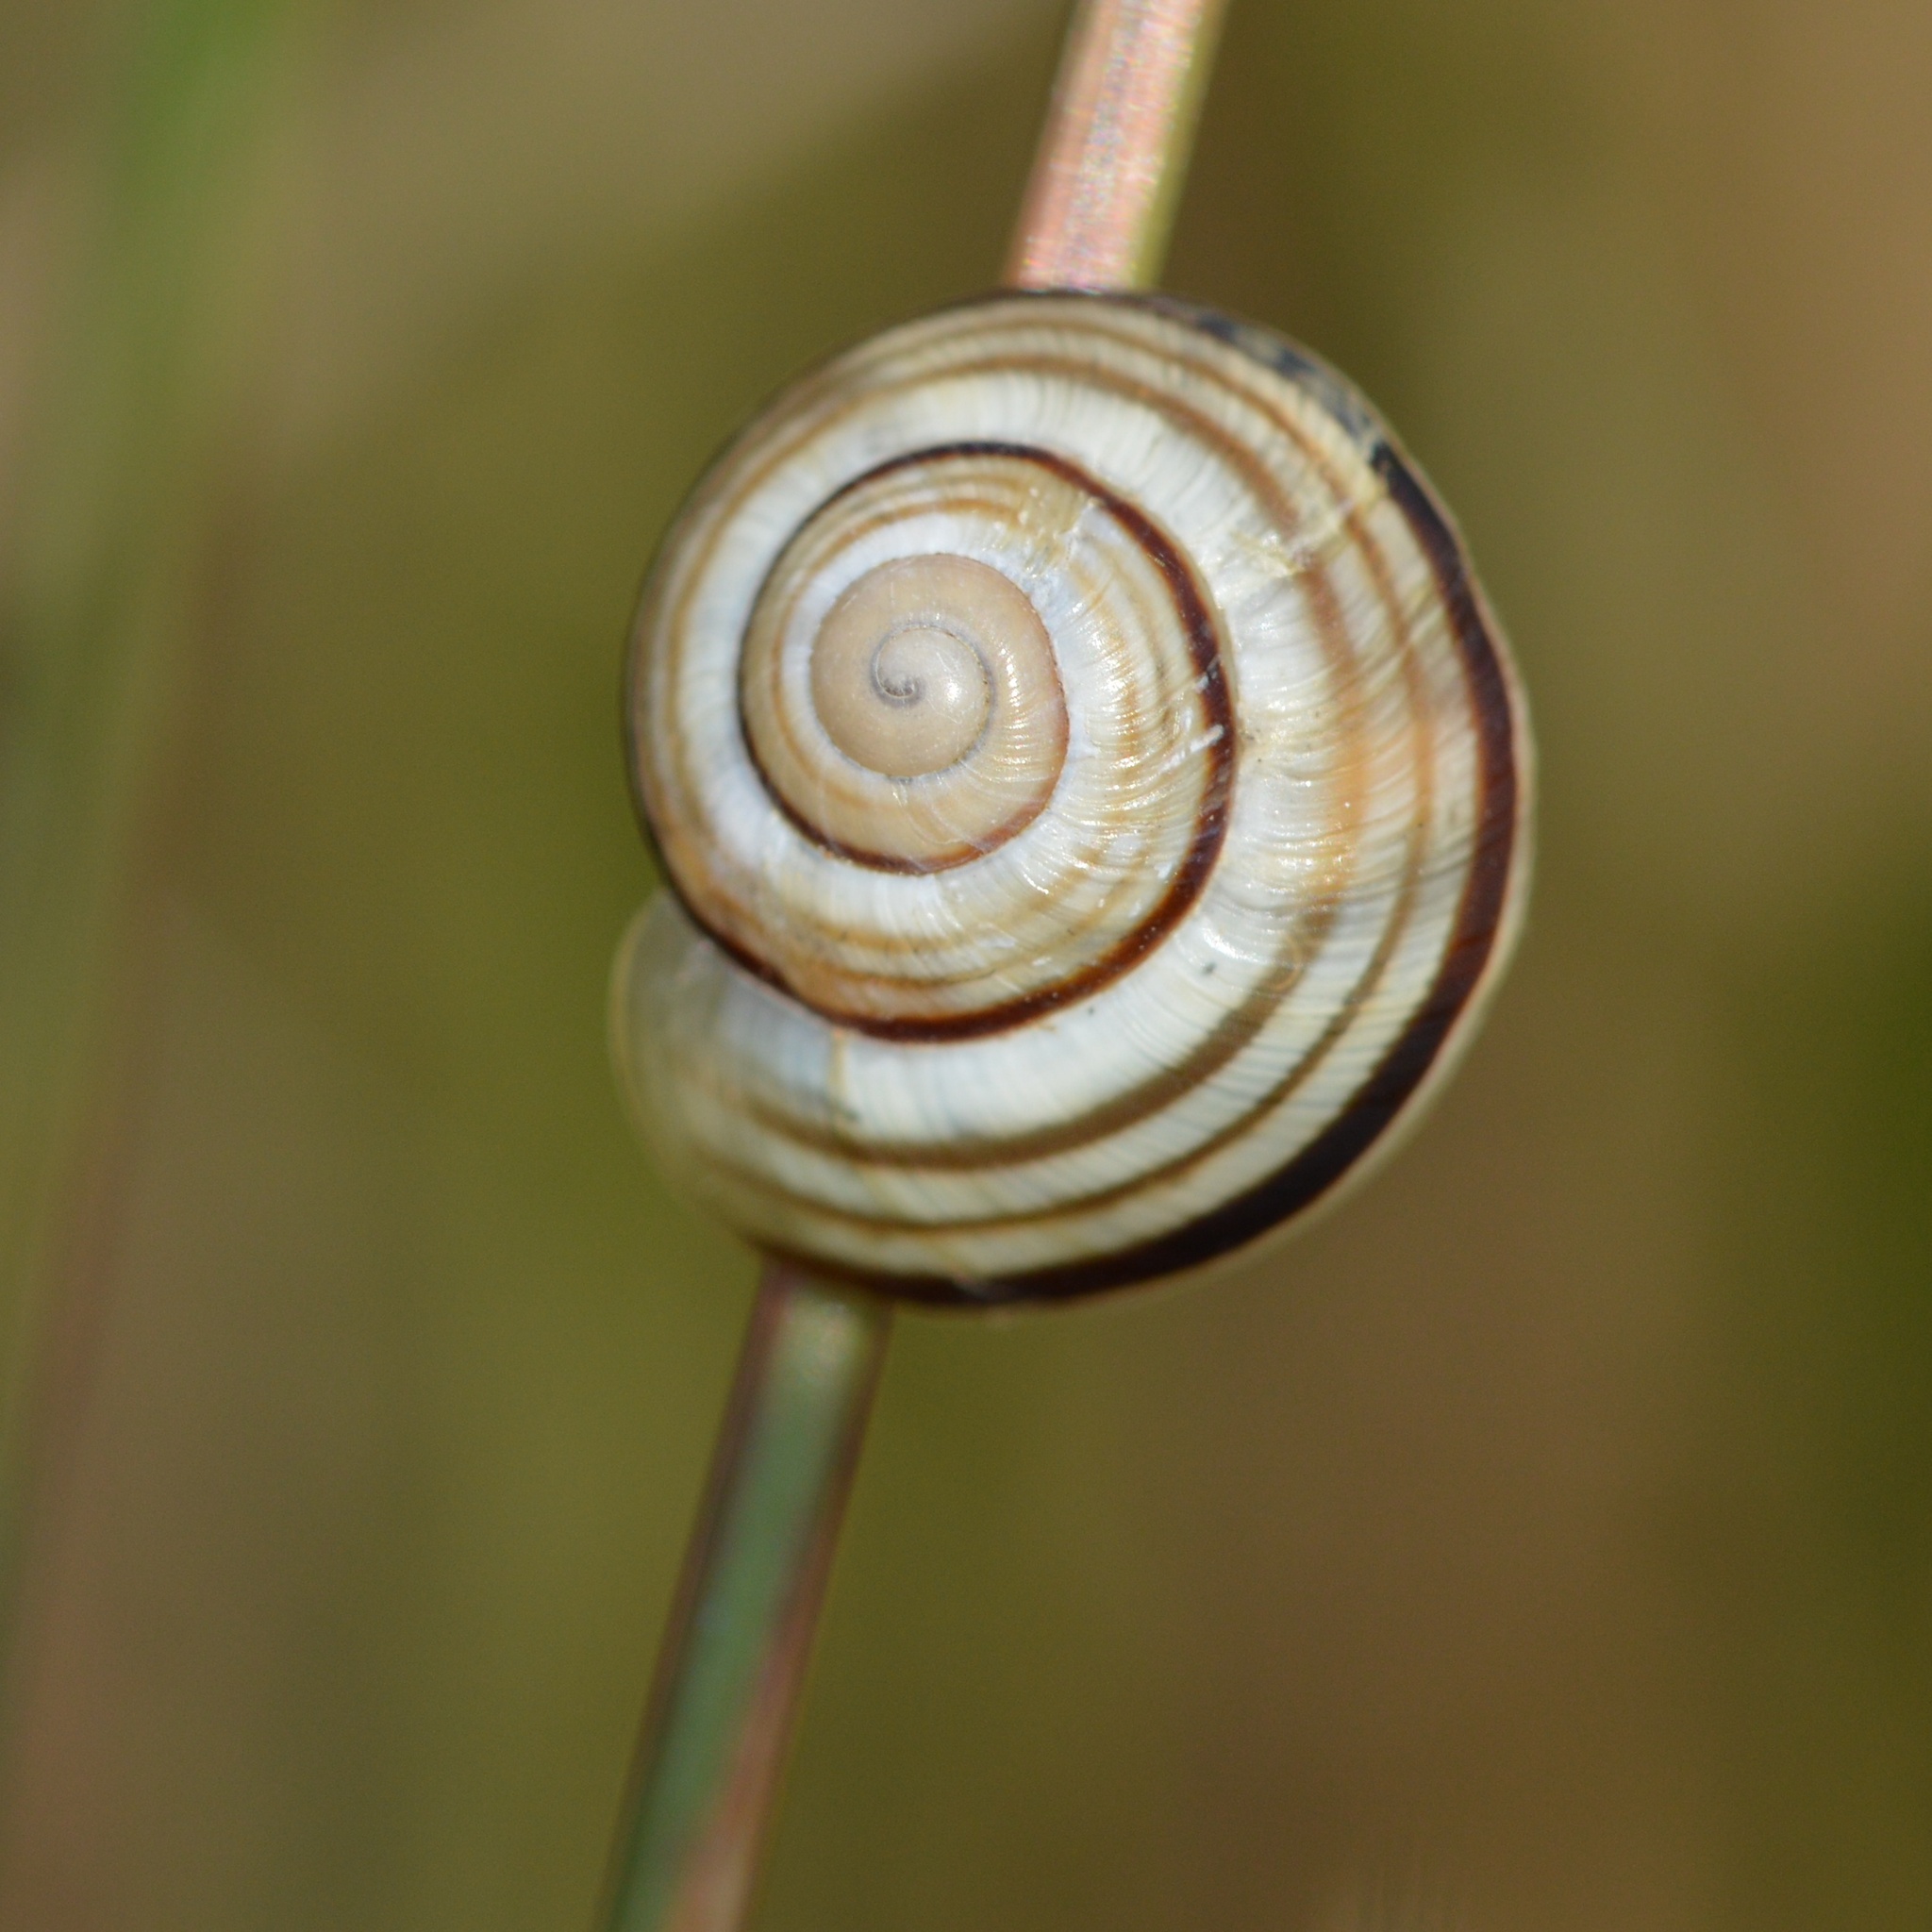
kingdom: Animalia
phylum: Mollusca
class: Gastropoda
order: Stylommatophora
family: Helicidae
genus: Caucasotachea
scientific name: Caucasotachea vindobonensis
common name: European helicid land snail
